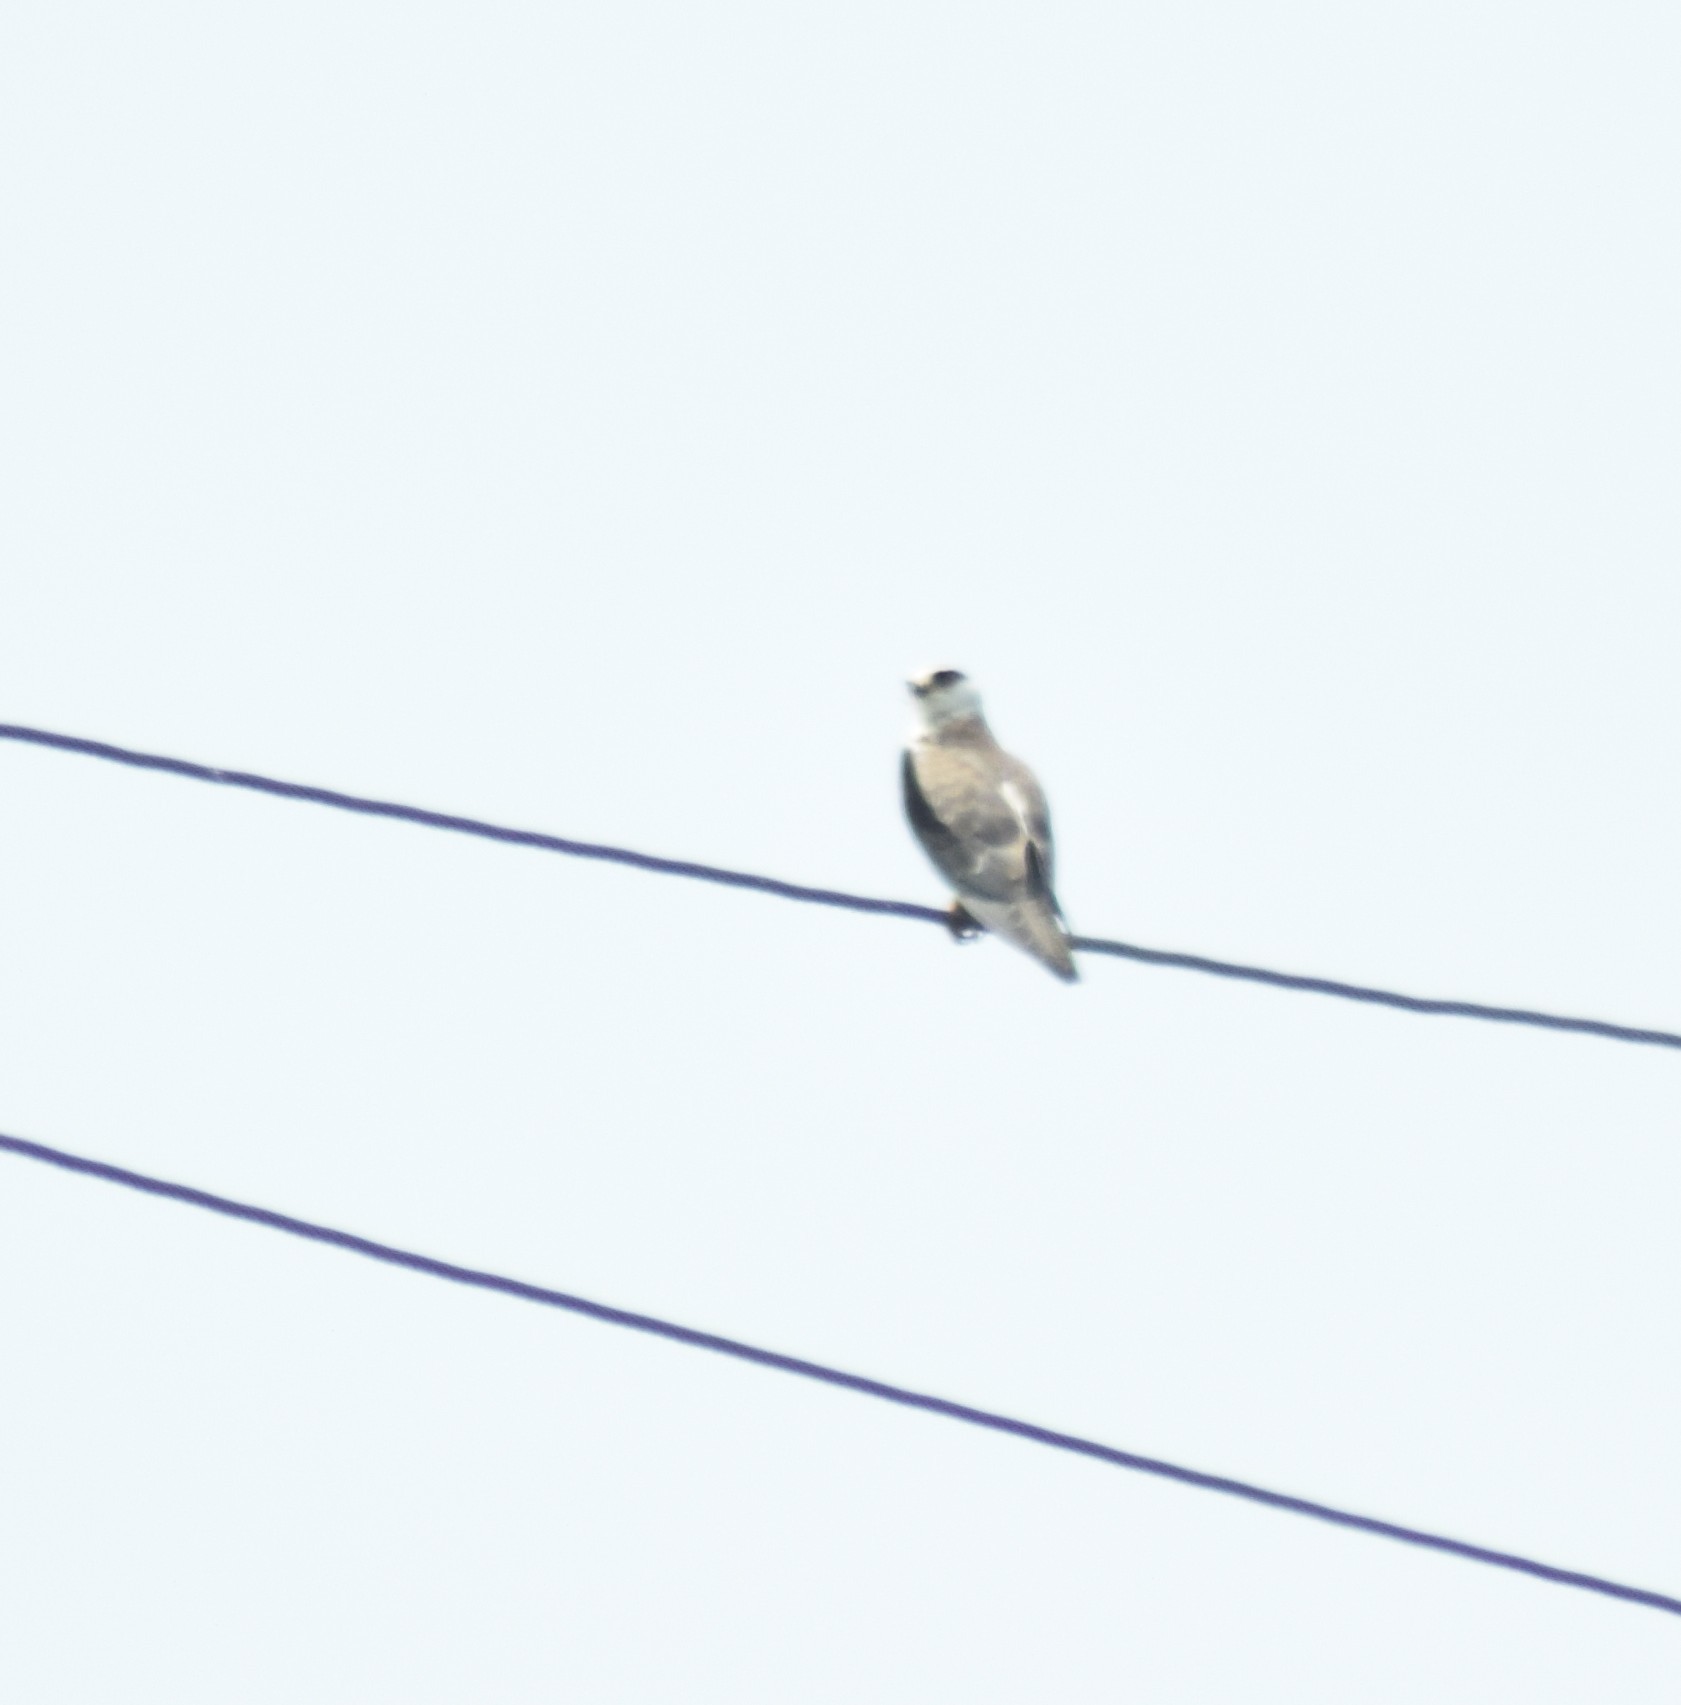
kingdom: Animalia
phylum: Chordata
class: Aves
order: Accipitriformes
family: Accipitridae
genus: Elanus
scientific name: Elanus caeruleus
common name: Black-winged kite
